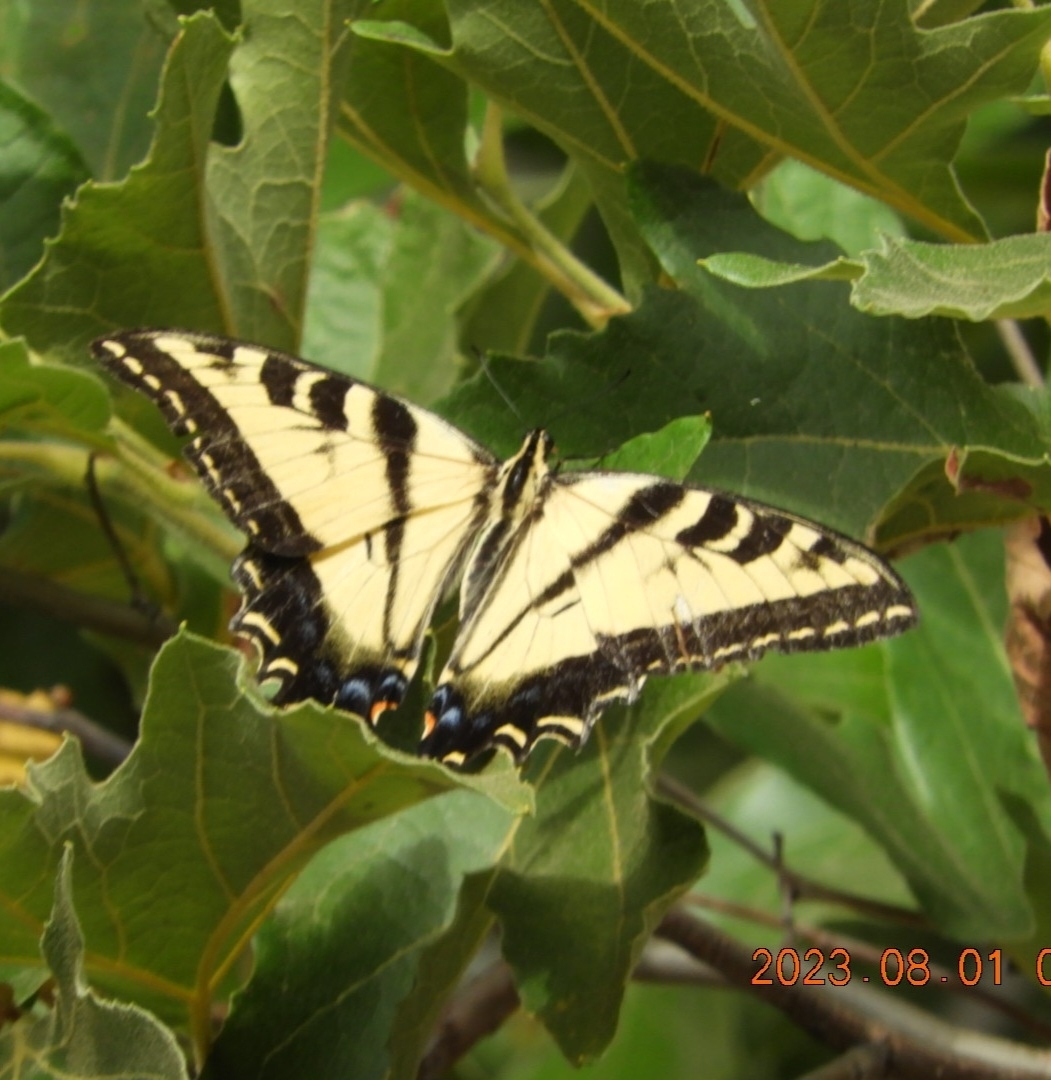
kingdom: Animalia
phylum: Arthropoda
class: Insecta
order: Lepidoptera
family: Papilionidae
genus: Papilio
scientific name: Papilio rutulus
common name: Western tiger swallowtail
